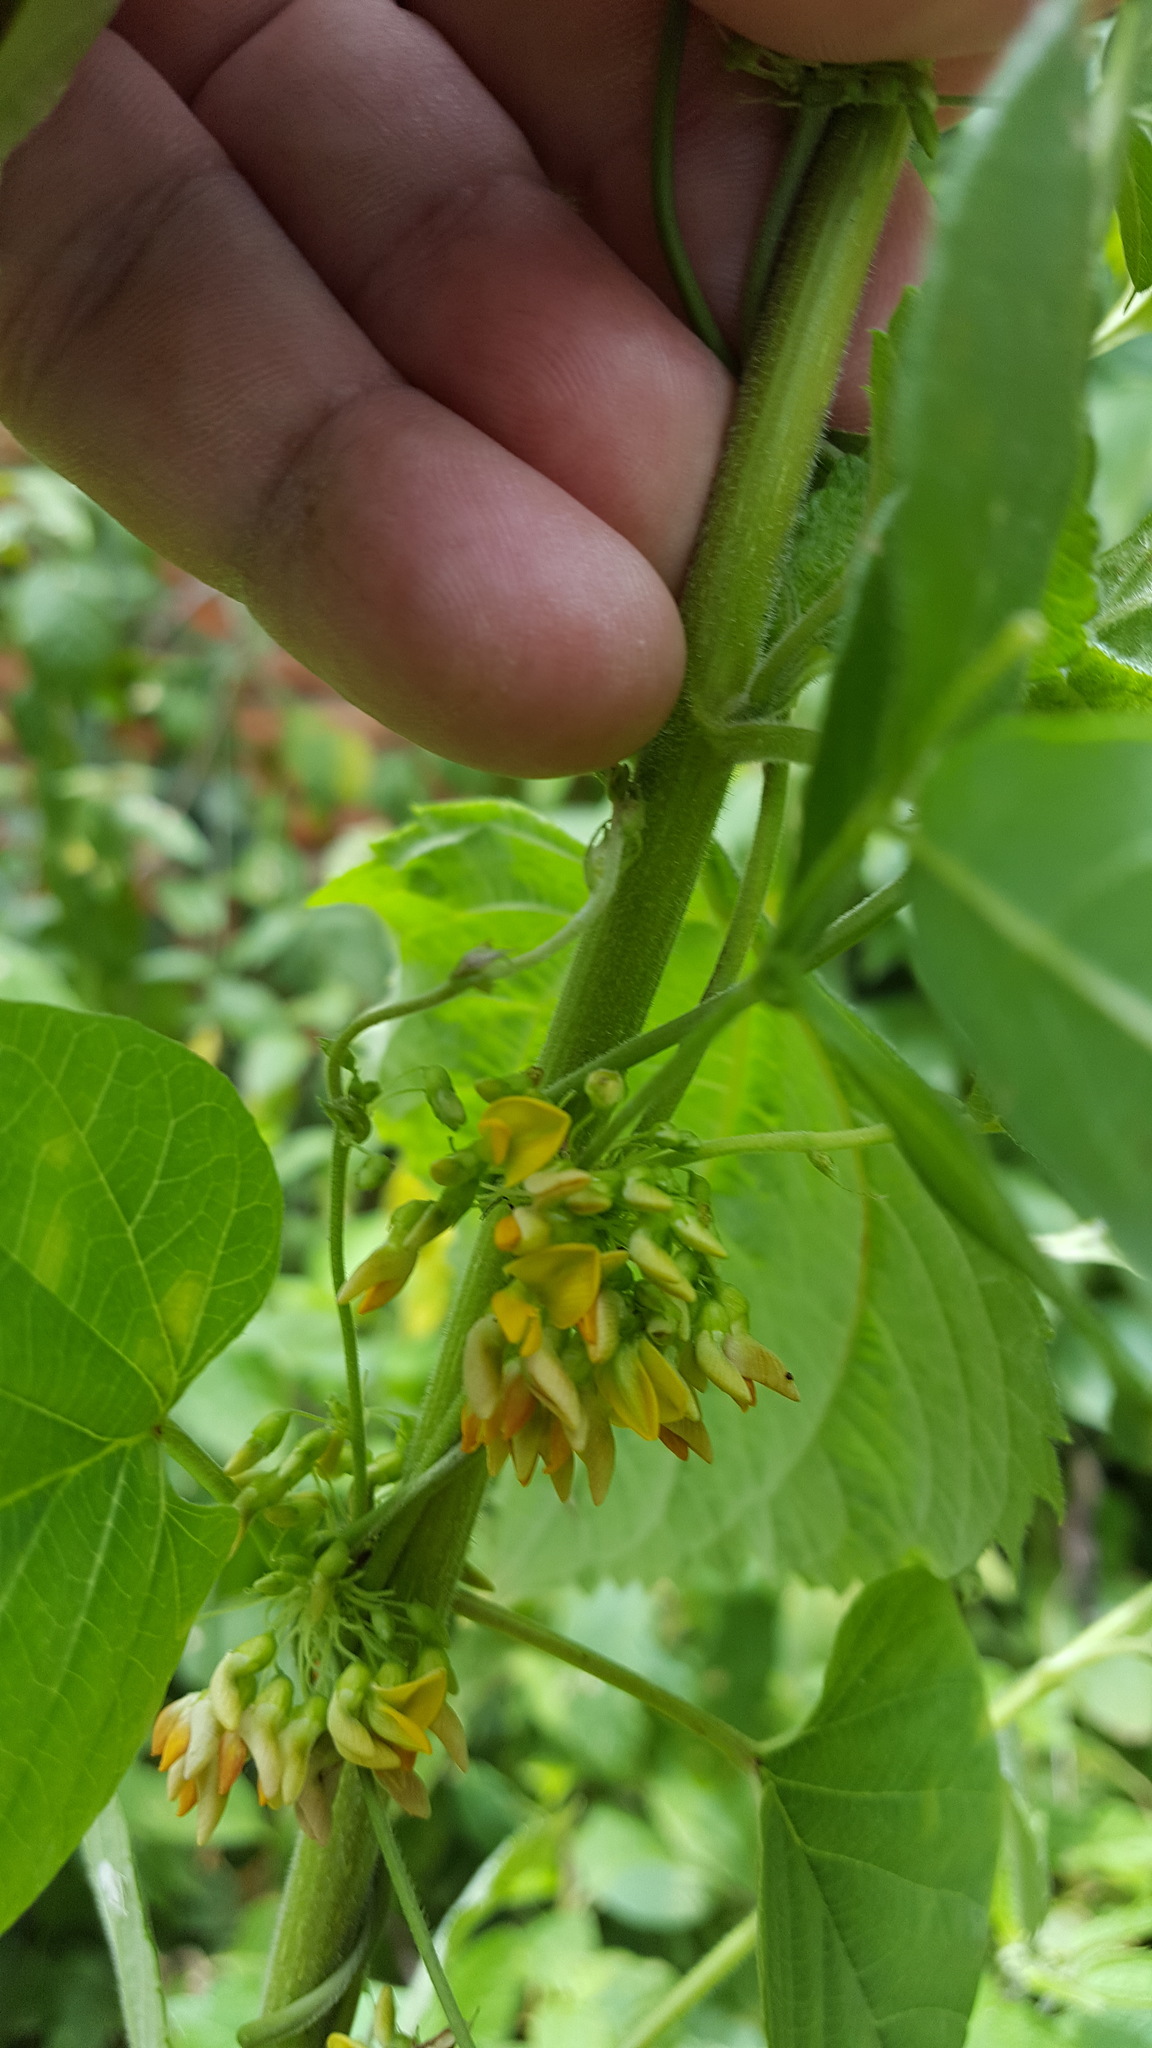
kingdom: Plantae
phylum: Tracheophyta
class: Magnoliopsida
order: Fabales
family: Fabaceae
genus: Nissolia
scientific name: Nissolia fruticosa
